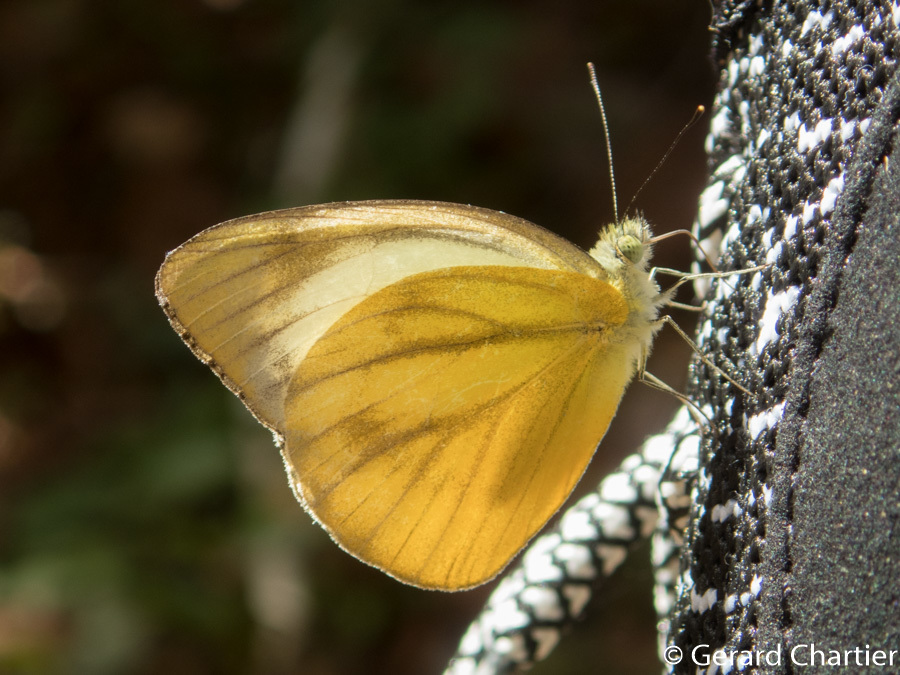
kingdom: Animalia
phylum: Arthropoda
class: Insecta
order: Lepidoptera
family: Pieridae
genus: Cepora
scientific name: Cepora nadina
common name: Lesser gull
